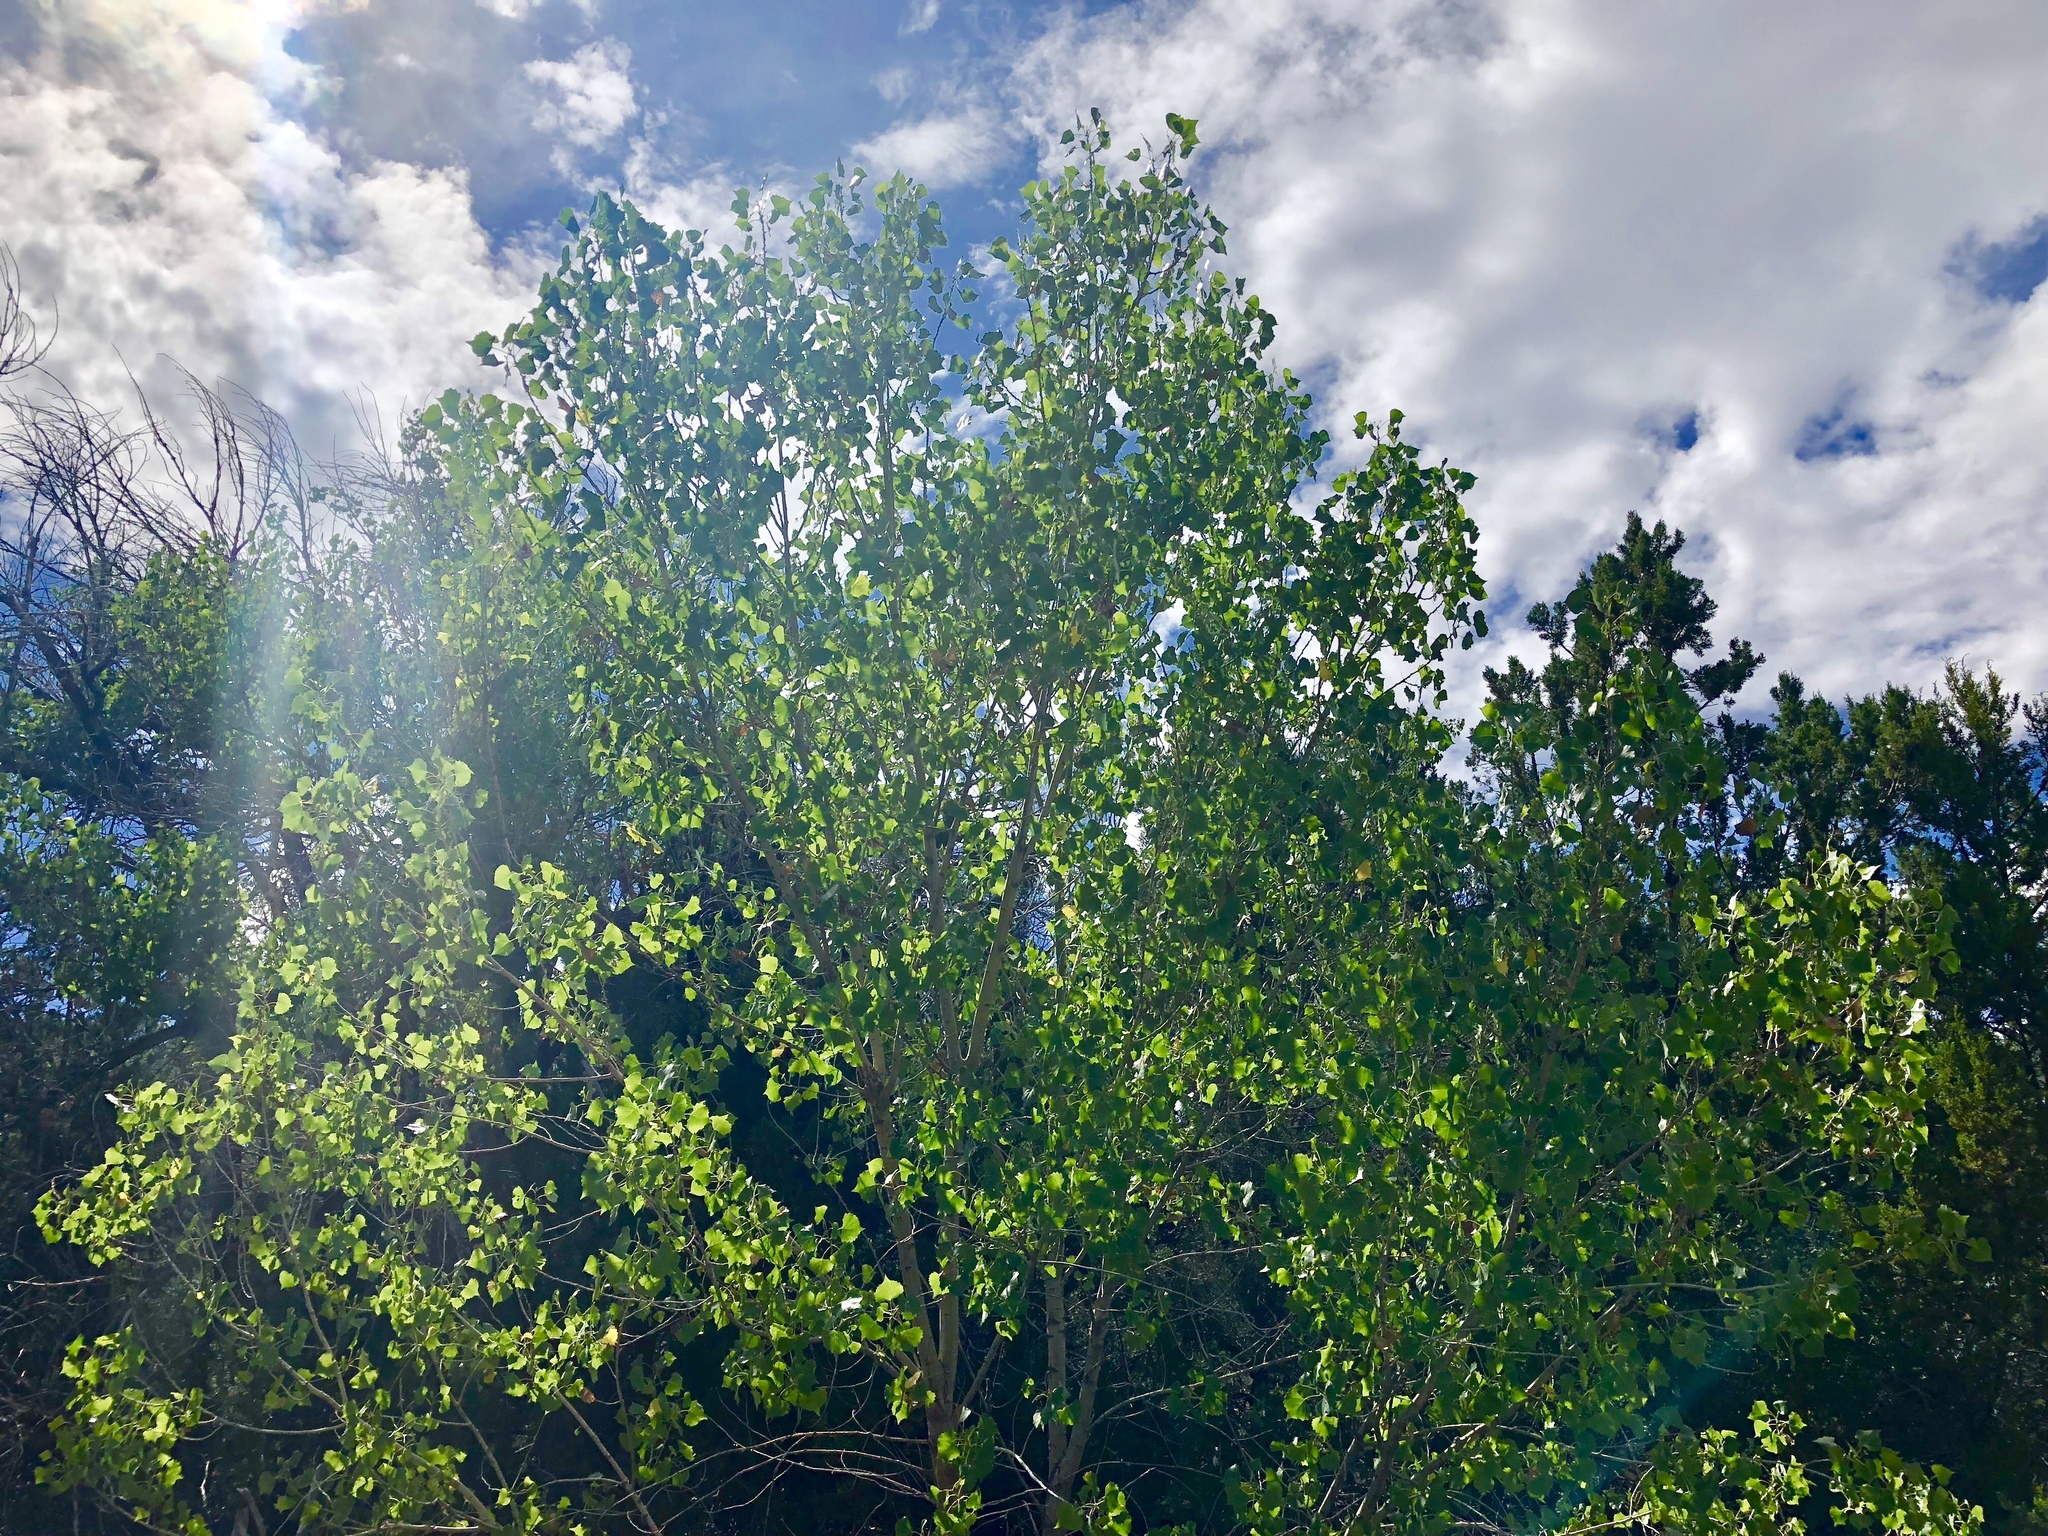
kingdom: Plantae
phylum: Tracheophyta
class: Magnoliopsida
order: Malpighiales
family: Salicaceae
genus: Populus
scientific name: Populus fremontii
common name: Fremont's cottonwood
